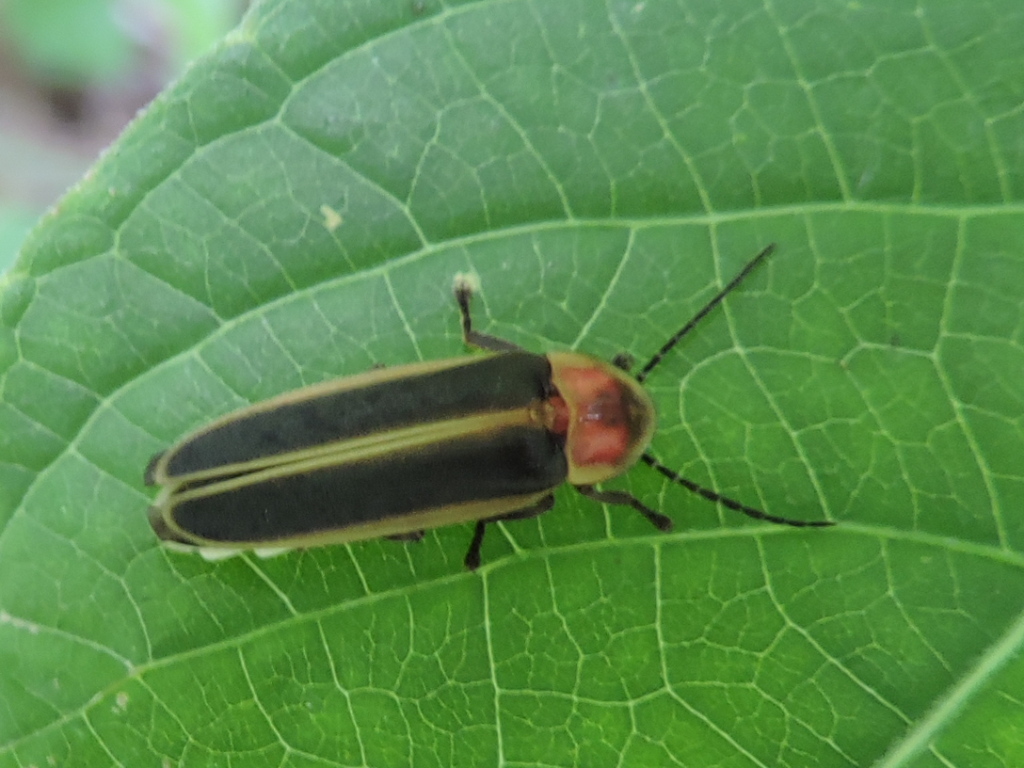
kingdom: Animalia
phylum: Arthropoda
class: Insecta
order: Coleoptera
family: Lampyridae
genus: Photinus
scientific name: Photinus pyralis
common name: Big dipper firefly
